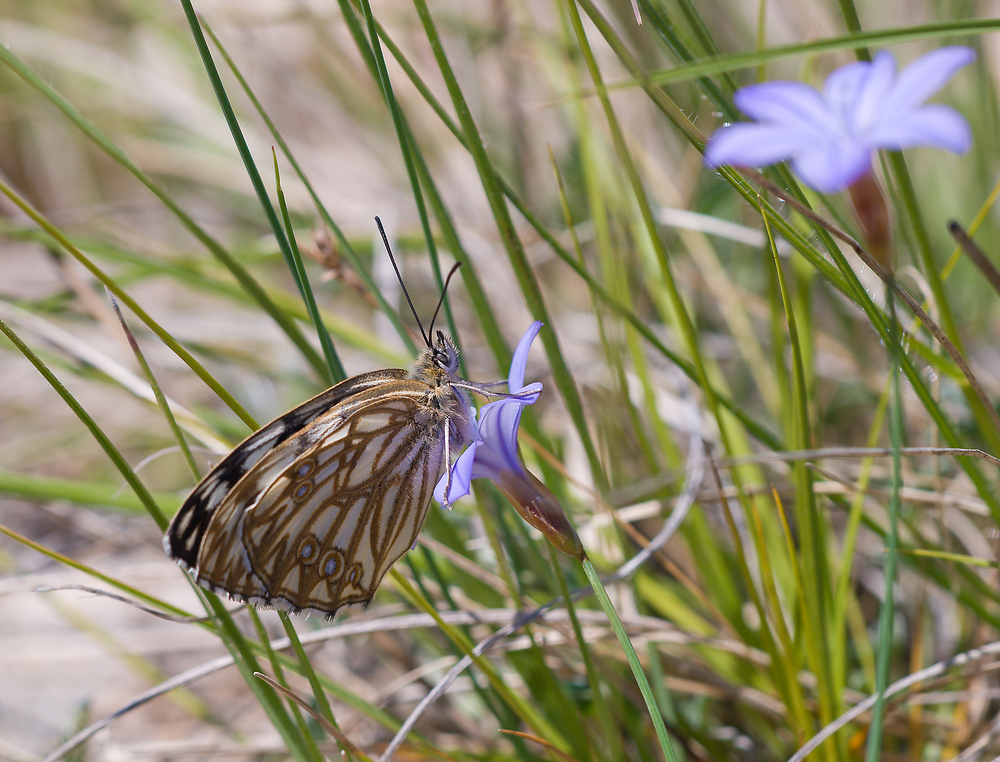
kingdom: Animalia
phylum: Arthropoda
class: Insecta
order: Lepidoptera
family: Nymphalidae
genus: Melanargia
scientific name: Melanargia occitanica
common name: Western marbled white
